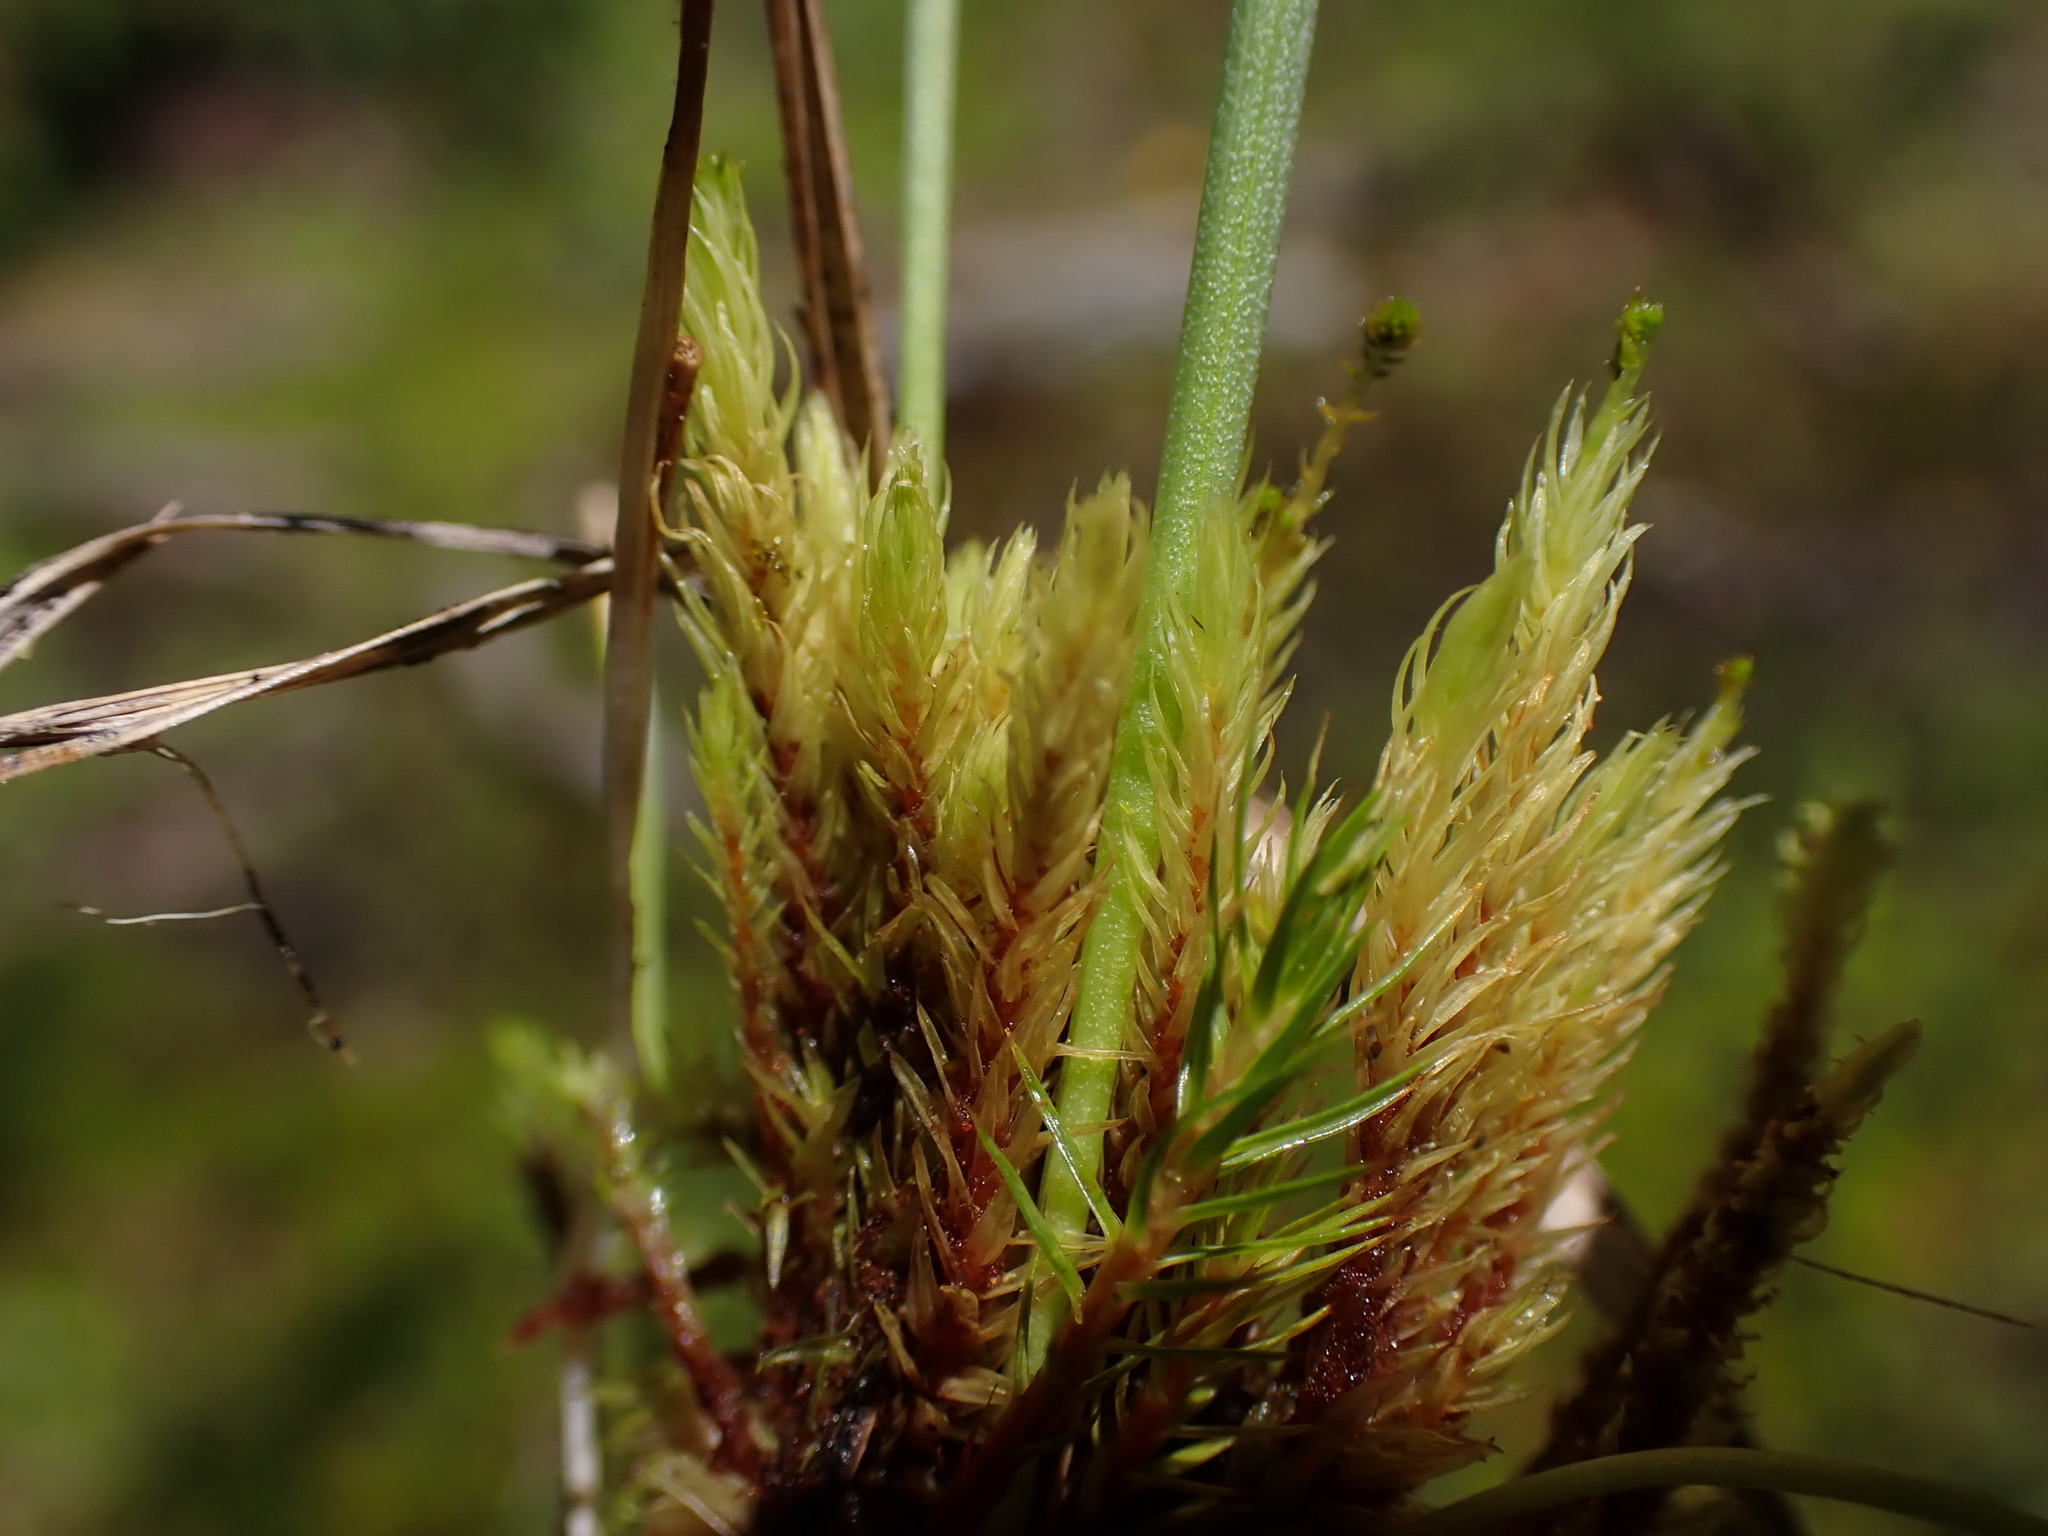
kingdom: Plantae
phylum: Bryophyta
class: Bryopsida
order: Aulacomniales
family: Aulacomniaceae
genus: Aulacomnium
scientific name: Aulacomnium palustre
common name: Bog groove-moss
